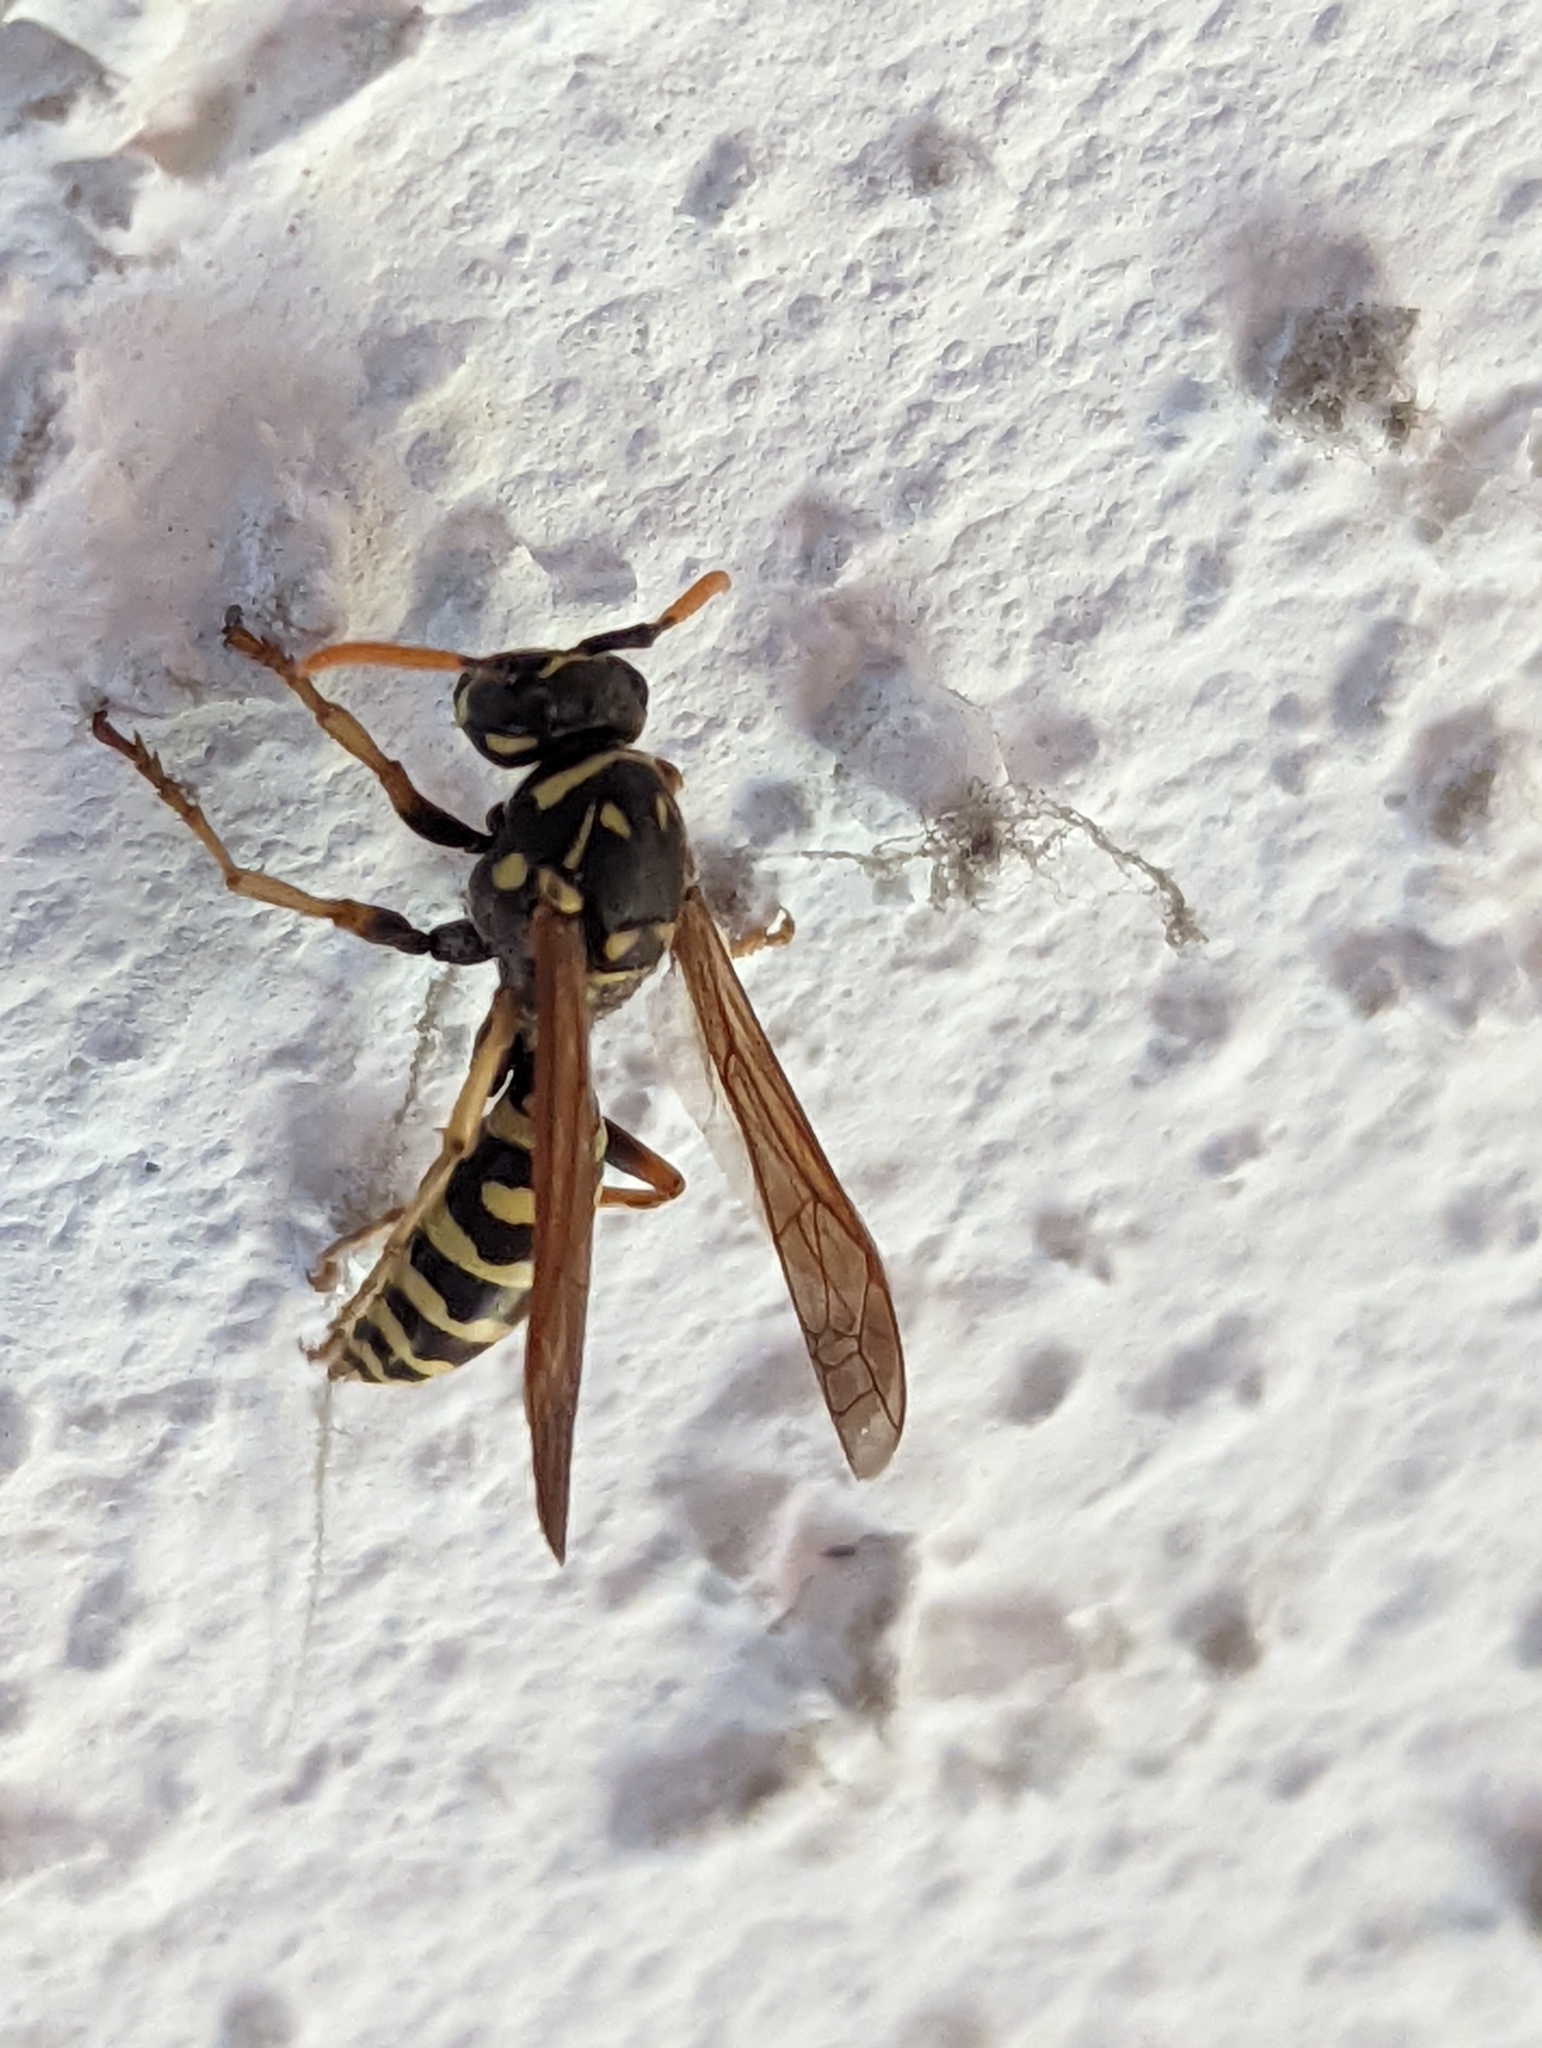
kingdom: Animalia
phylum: Arthropoda
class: Insecta
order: Hymenoptera
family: Eumenidae
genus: Polistes
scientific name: Polistes dominula
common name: Paper wasp
